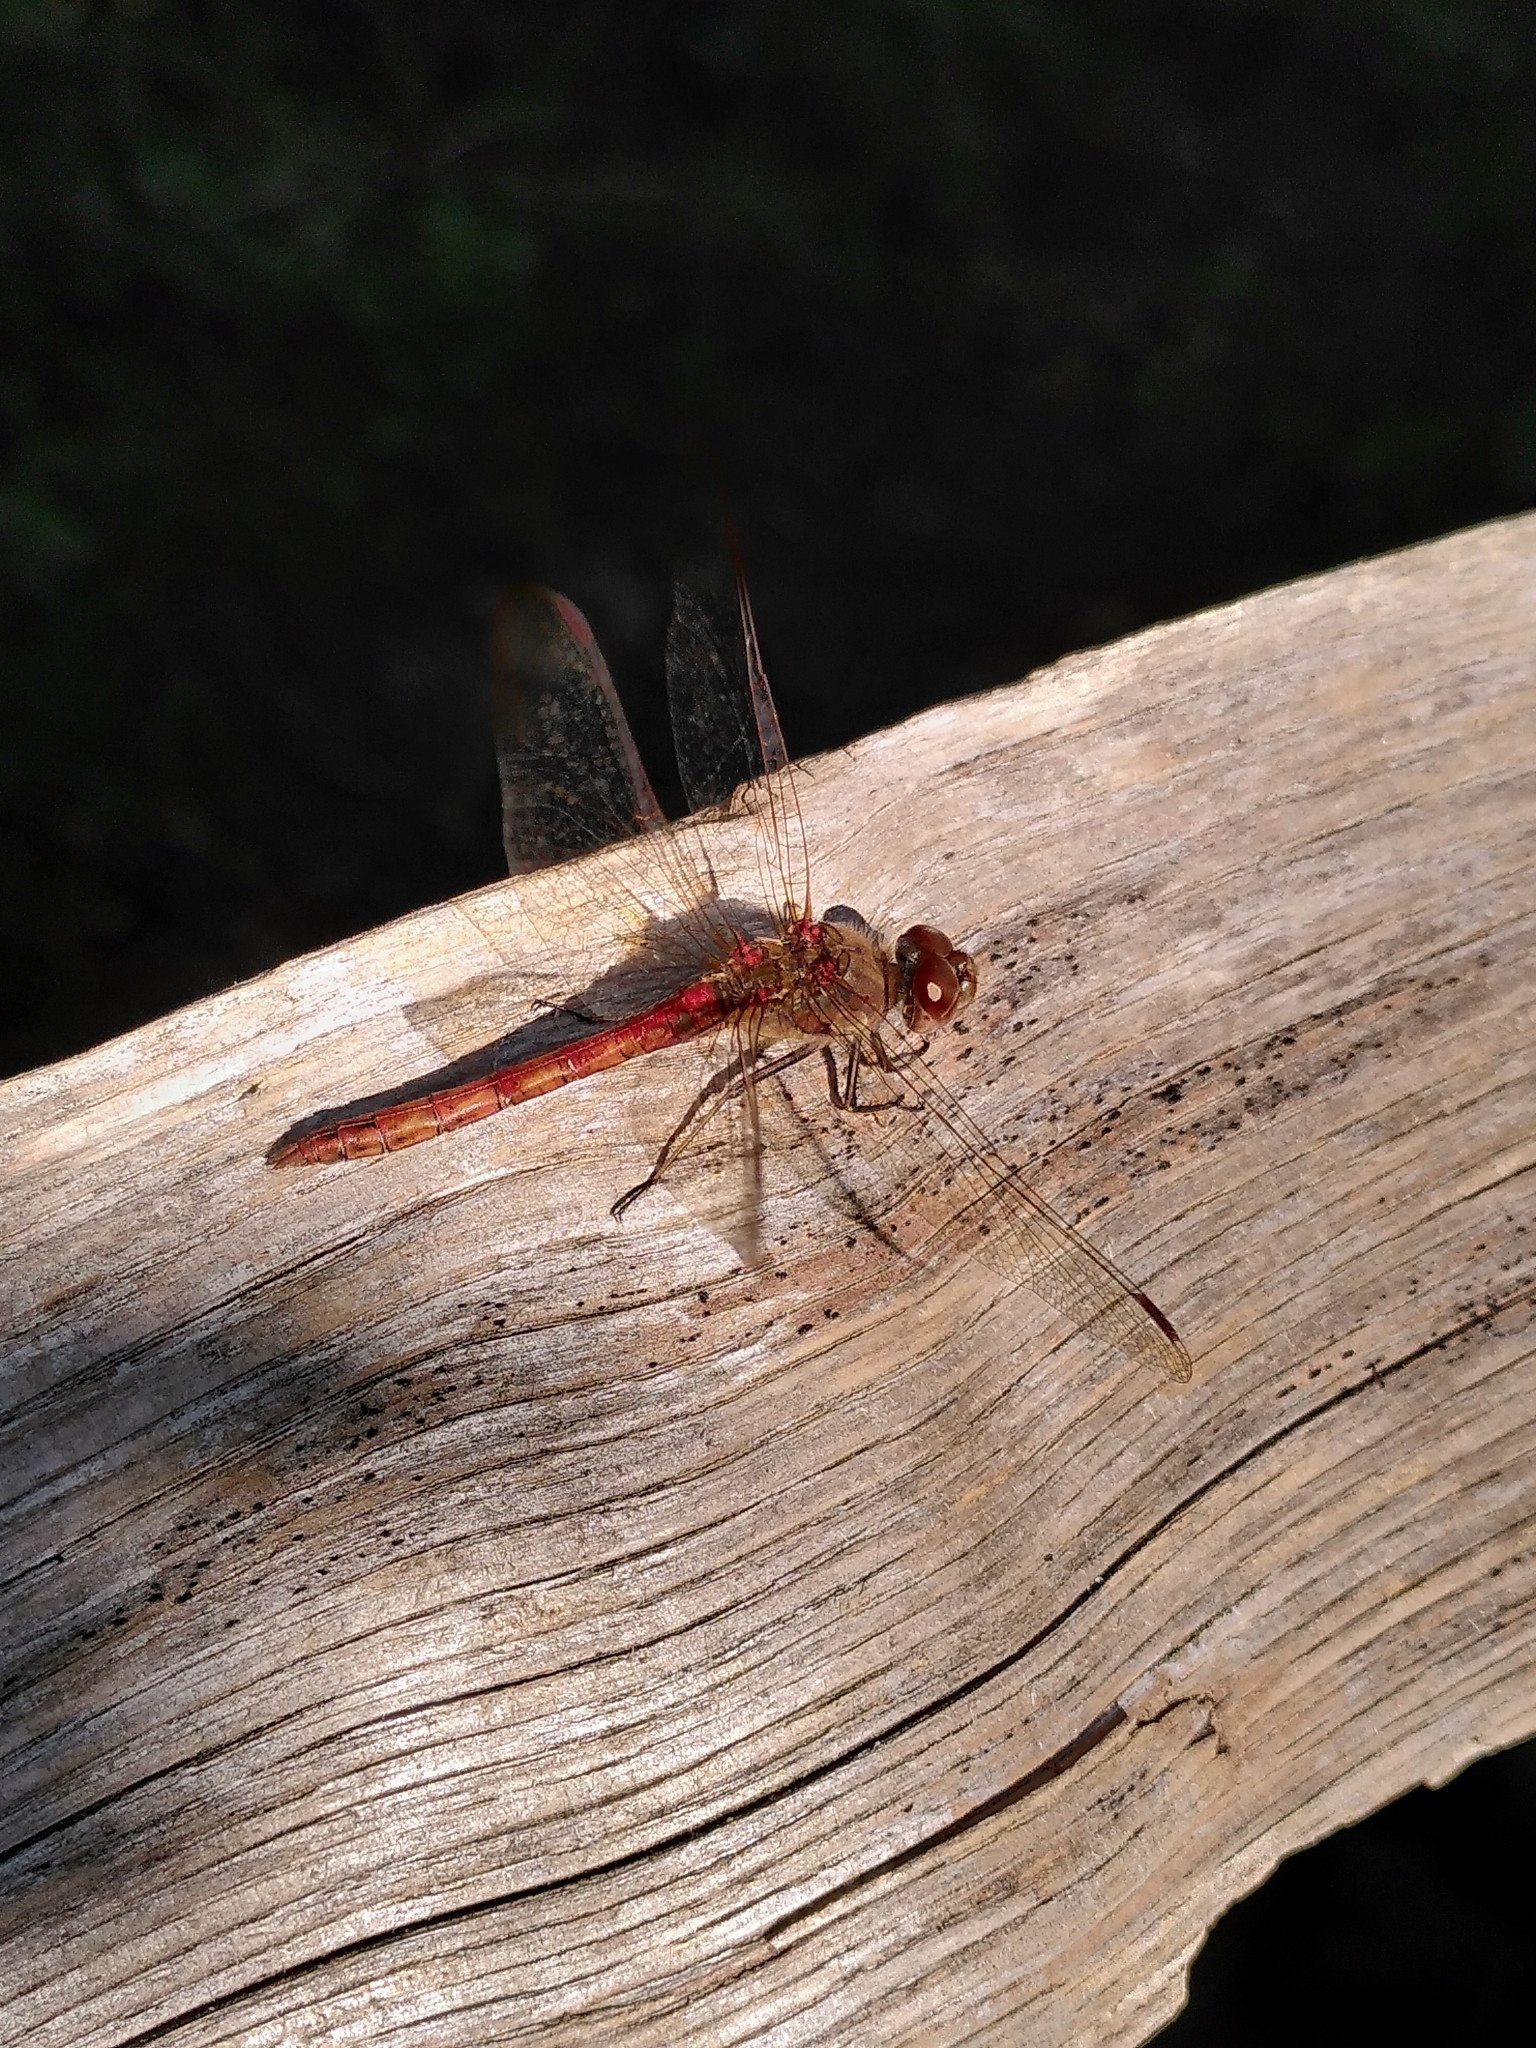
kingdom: Animalia
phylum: Arthropoda
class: Insecta
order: Odonata
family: Libellulidae
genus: Sympetrum
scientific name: Sympetrum striolatum
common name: Common darter
